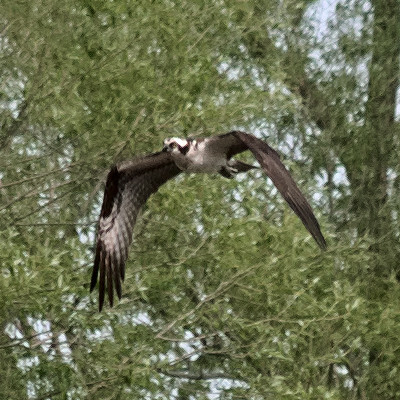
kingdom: Animalia
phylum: Chordata
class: Aves
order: Accipitriformes
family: Pandionidae
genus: Pandion
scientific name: Pandion haliaetus
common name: Osprey
